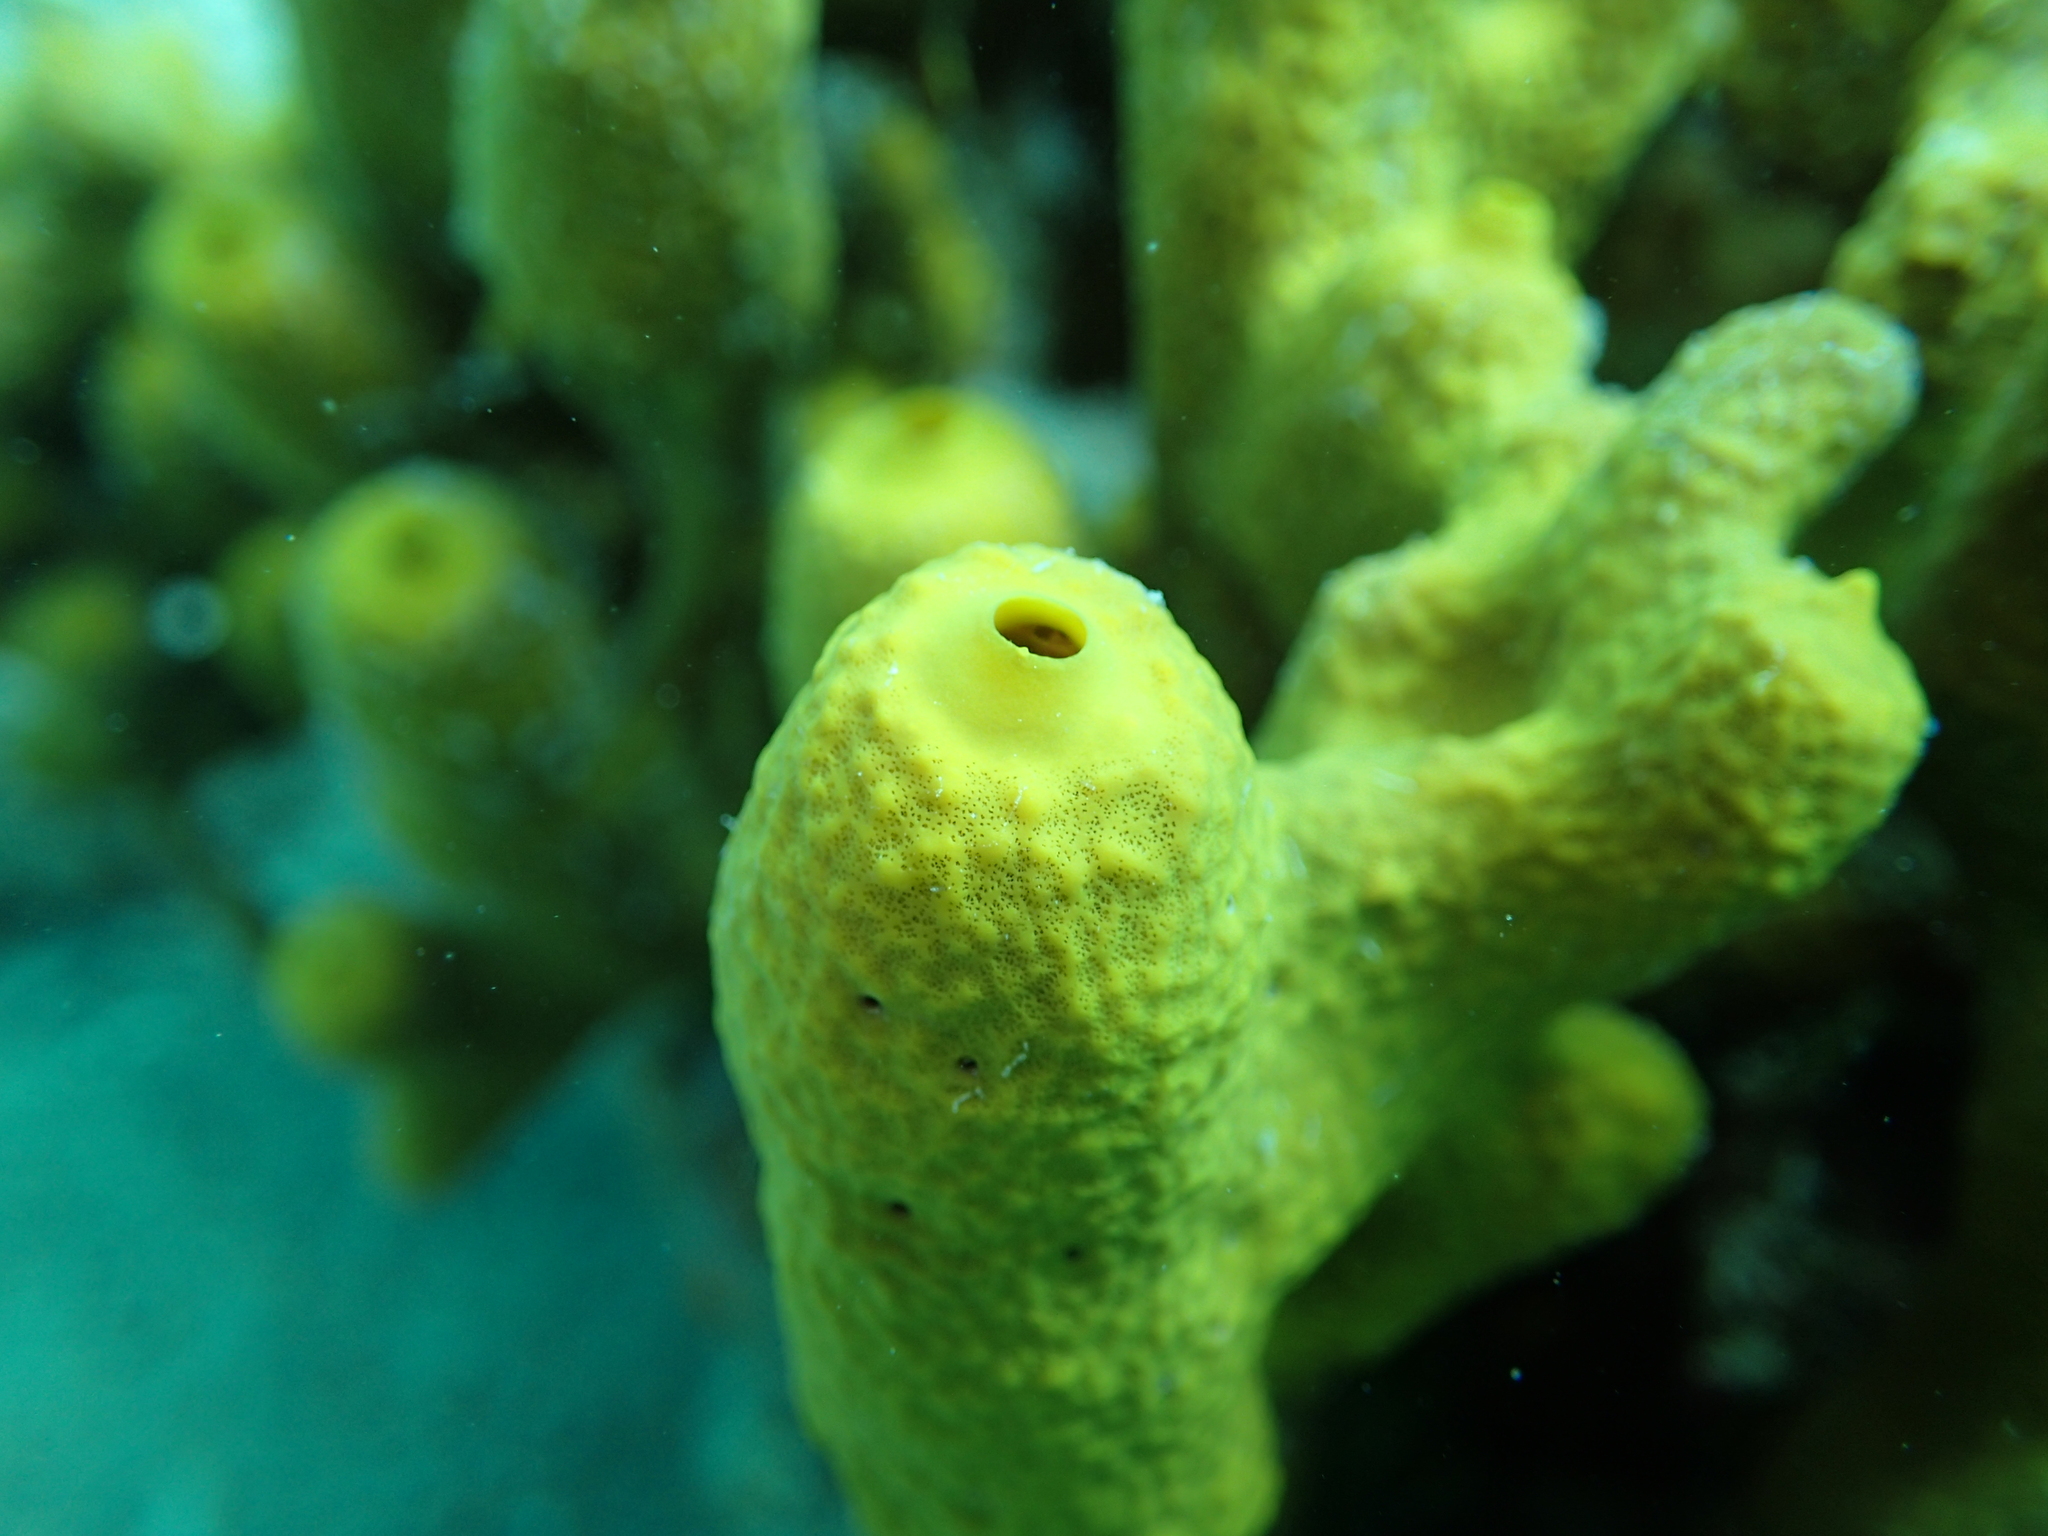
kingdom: Animalia
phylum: Porifera
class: Demospongiae
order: Verongiida
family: Aplysinidae
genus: Aplysina
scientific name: Aplysina aerophoba
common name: Aureate sponge
